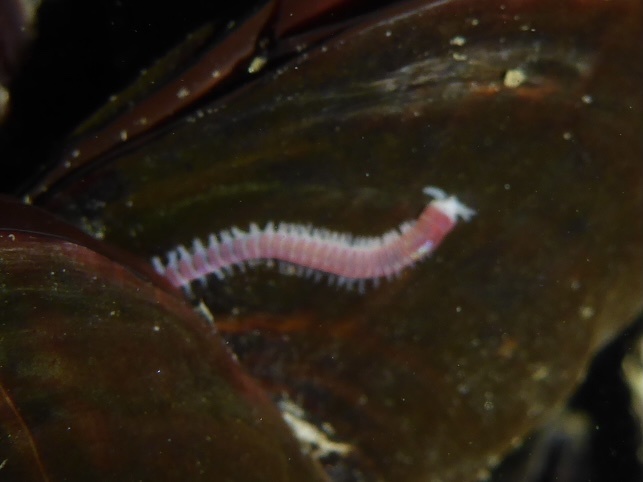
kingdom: Animalia
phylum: Annelida
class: Polychaeta
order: Eunicida
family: Dorvilleidae
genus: Dorvillea
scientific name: Dorvillea moniloceras
